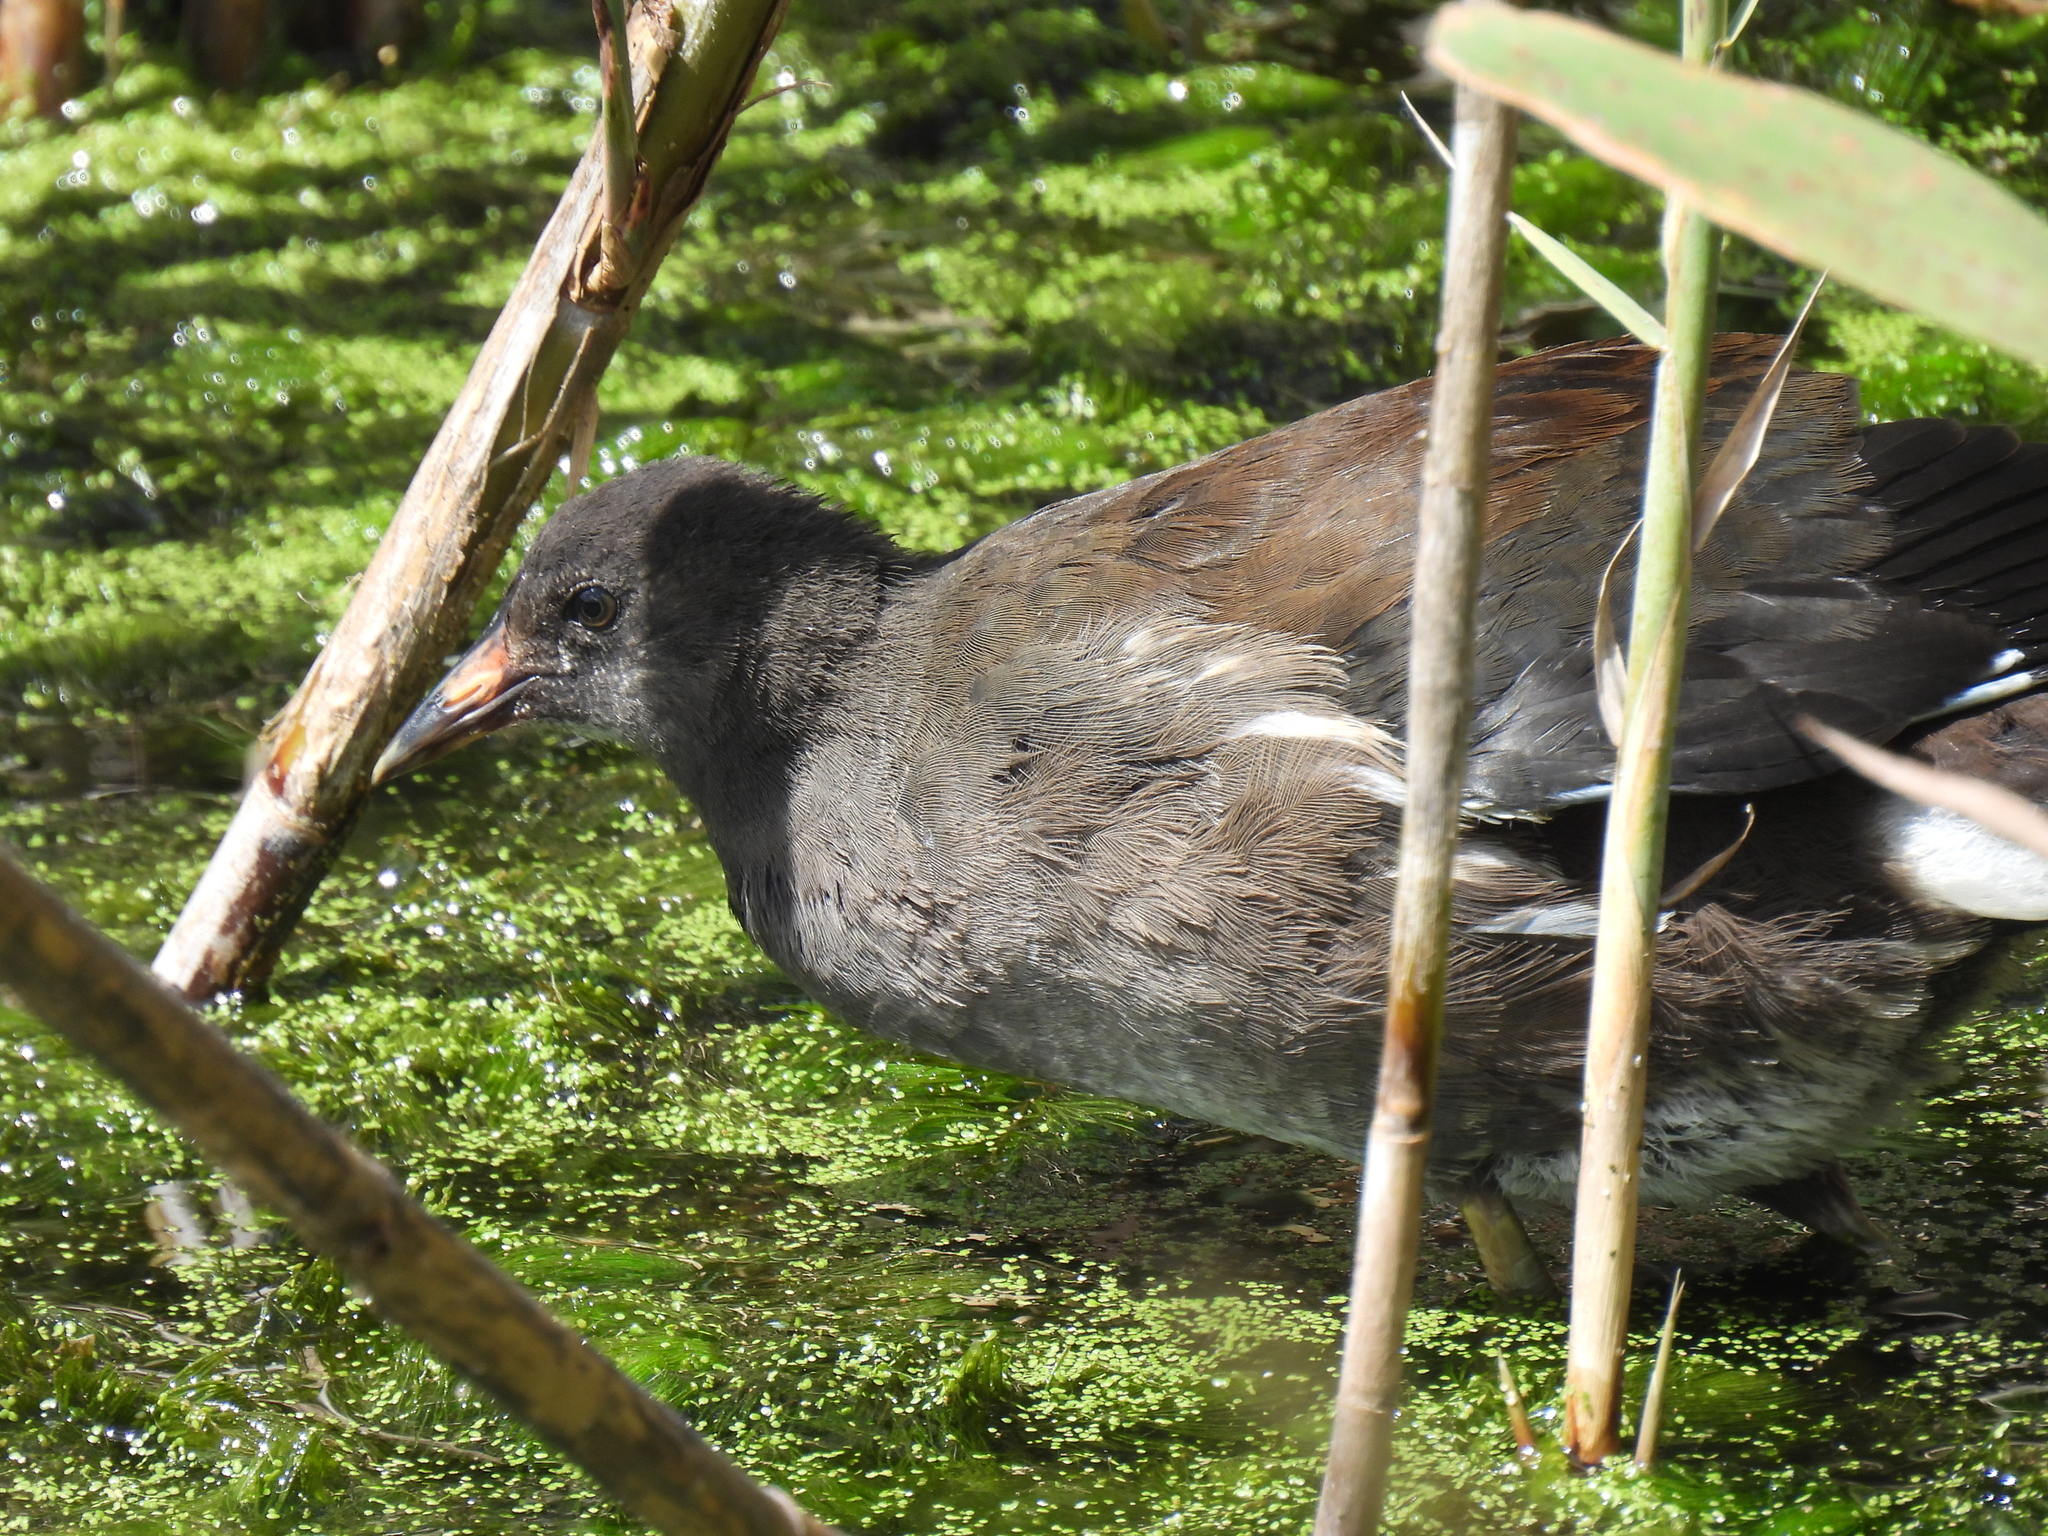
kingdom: Animalia
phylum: Chordata
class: Aves
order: Gruiformes
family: Rallidae
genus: Gallinula
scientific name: Gallinula chloropus
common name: Common moorhen
